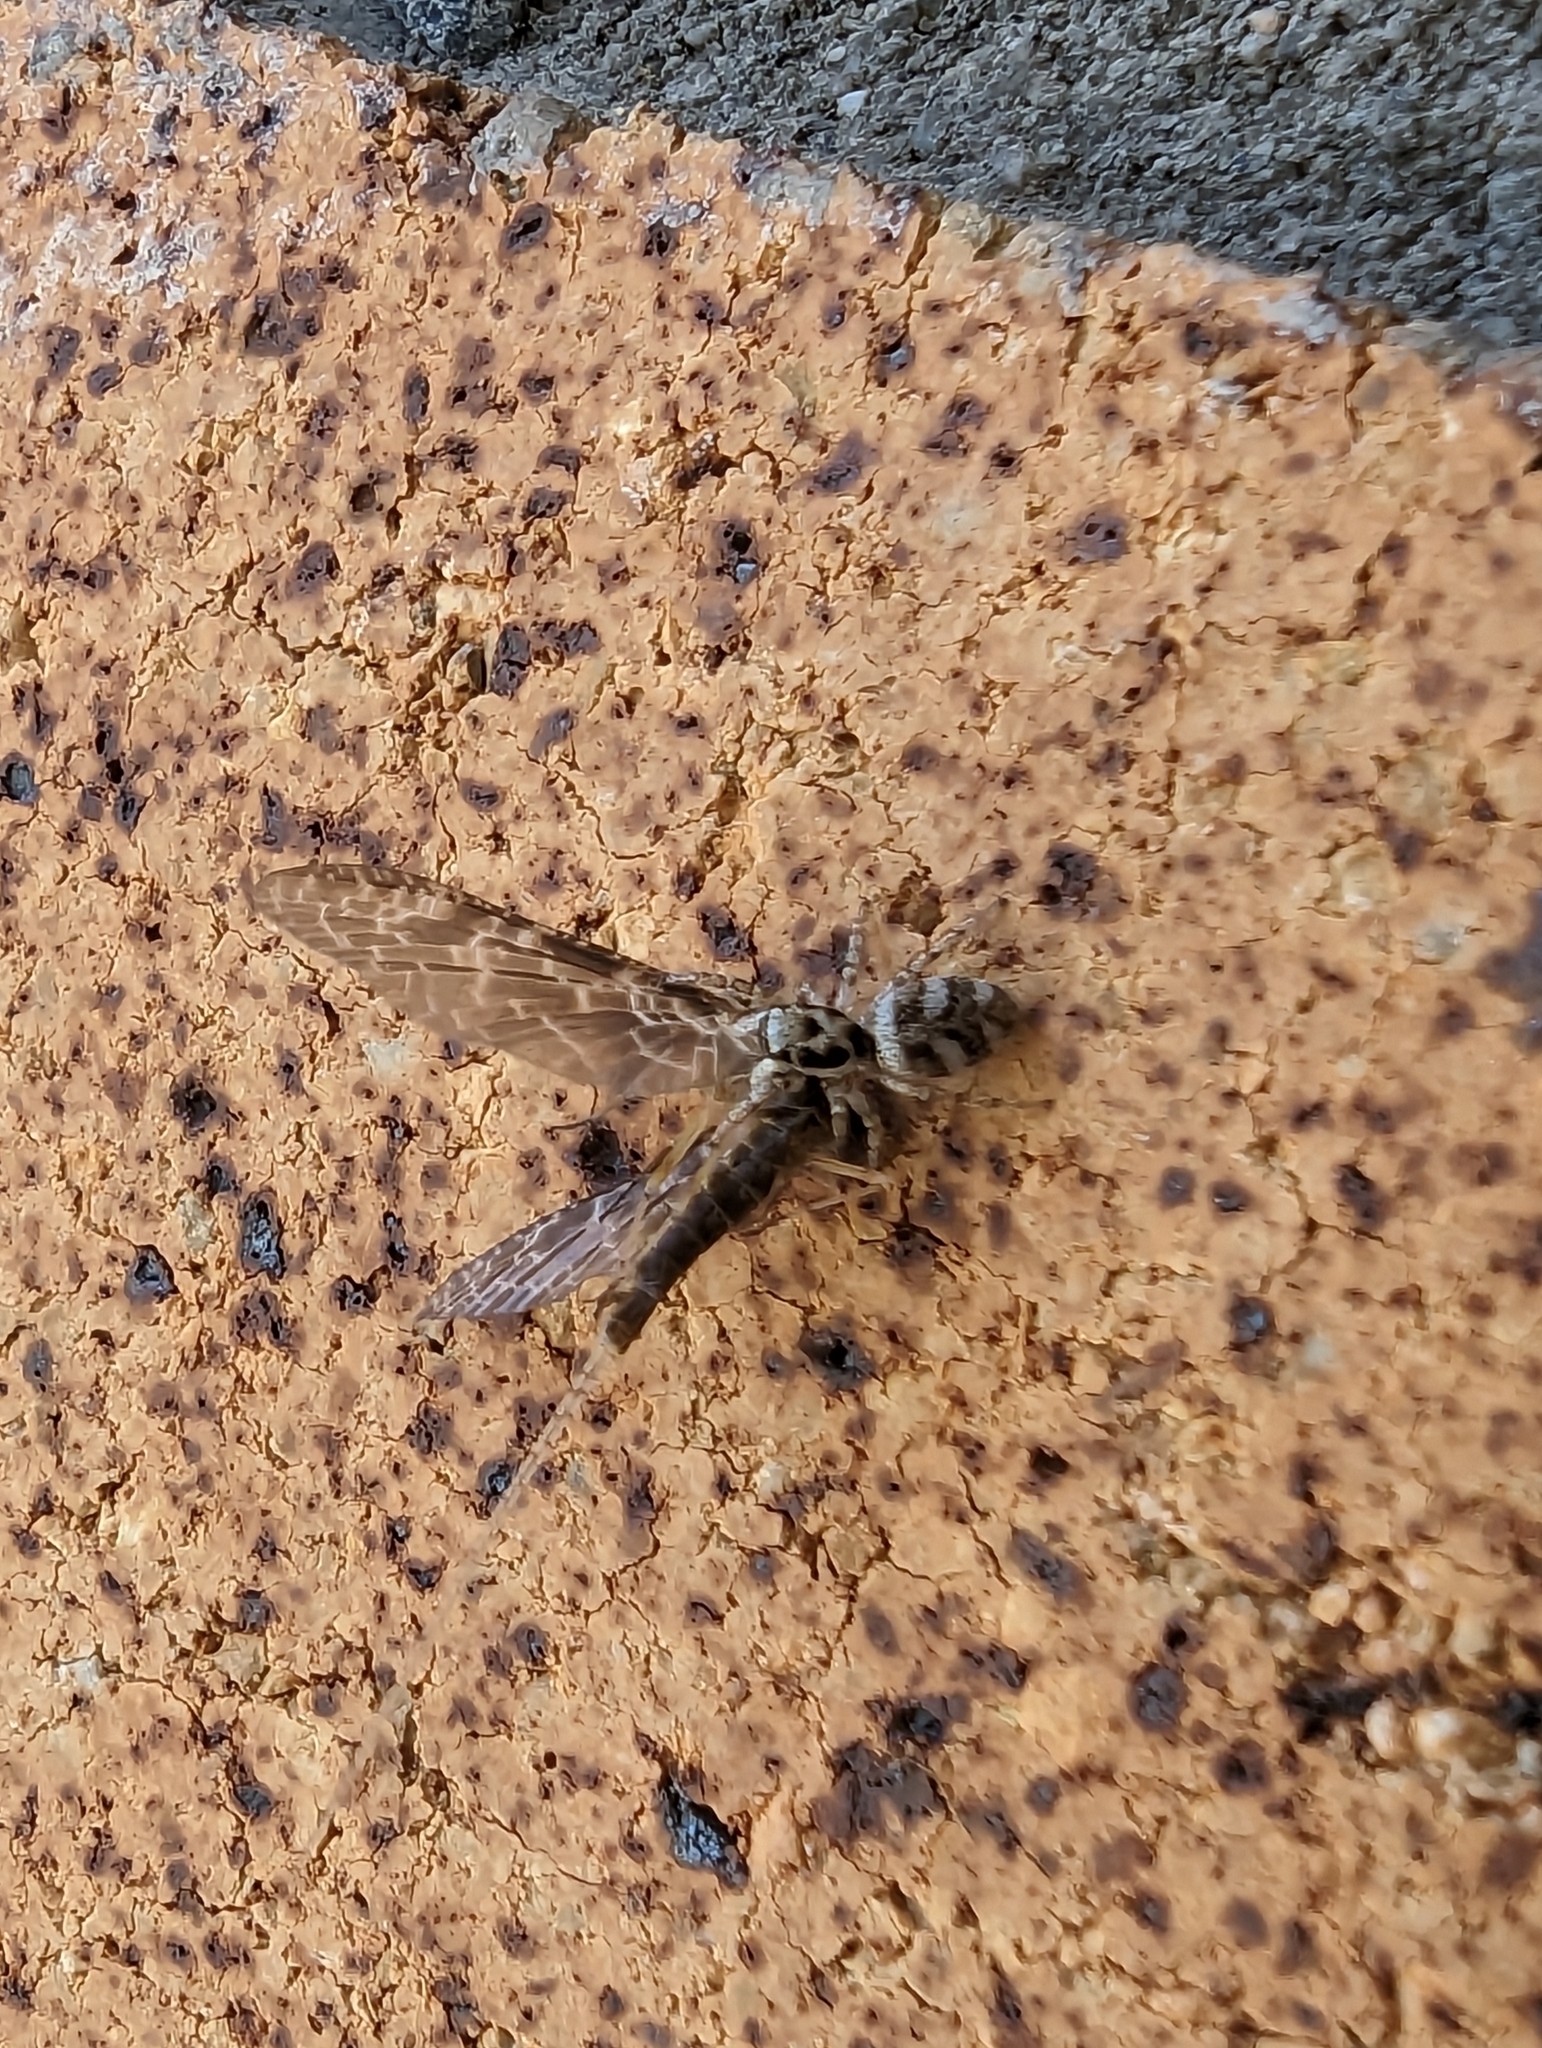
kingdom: Animalia
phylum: Arthropoda
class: Arachnida
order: Araneae
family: Salticidae
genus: Salticus
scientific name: Salticus scenicus
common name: Zebra jumper
